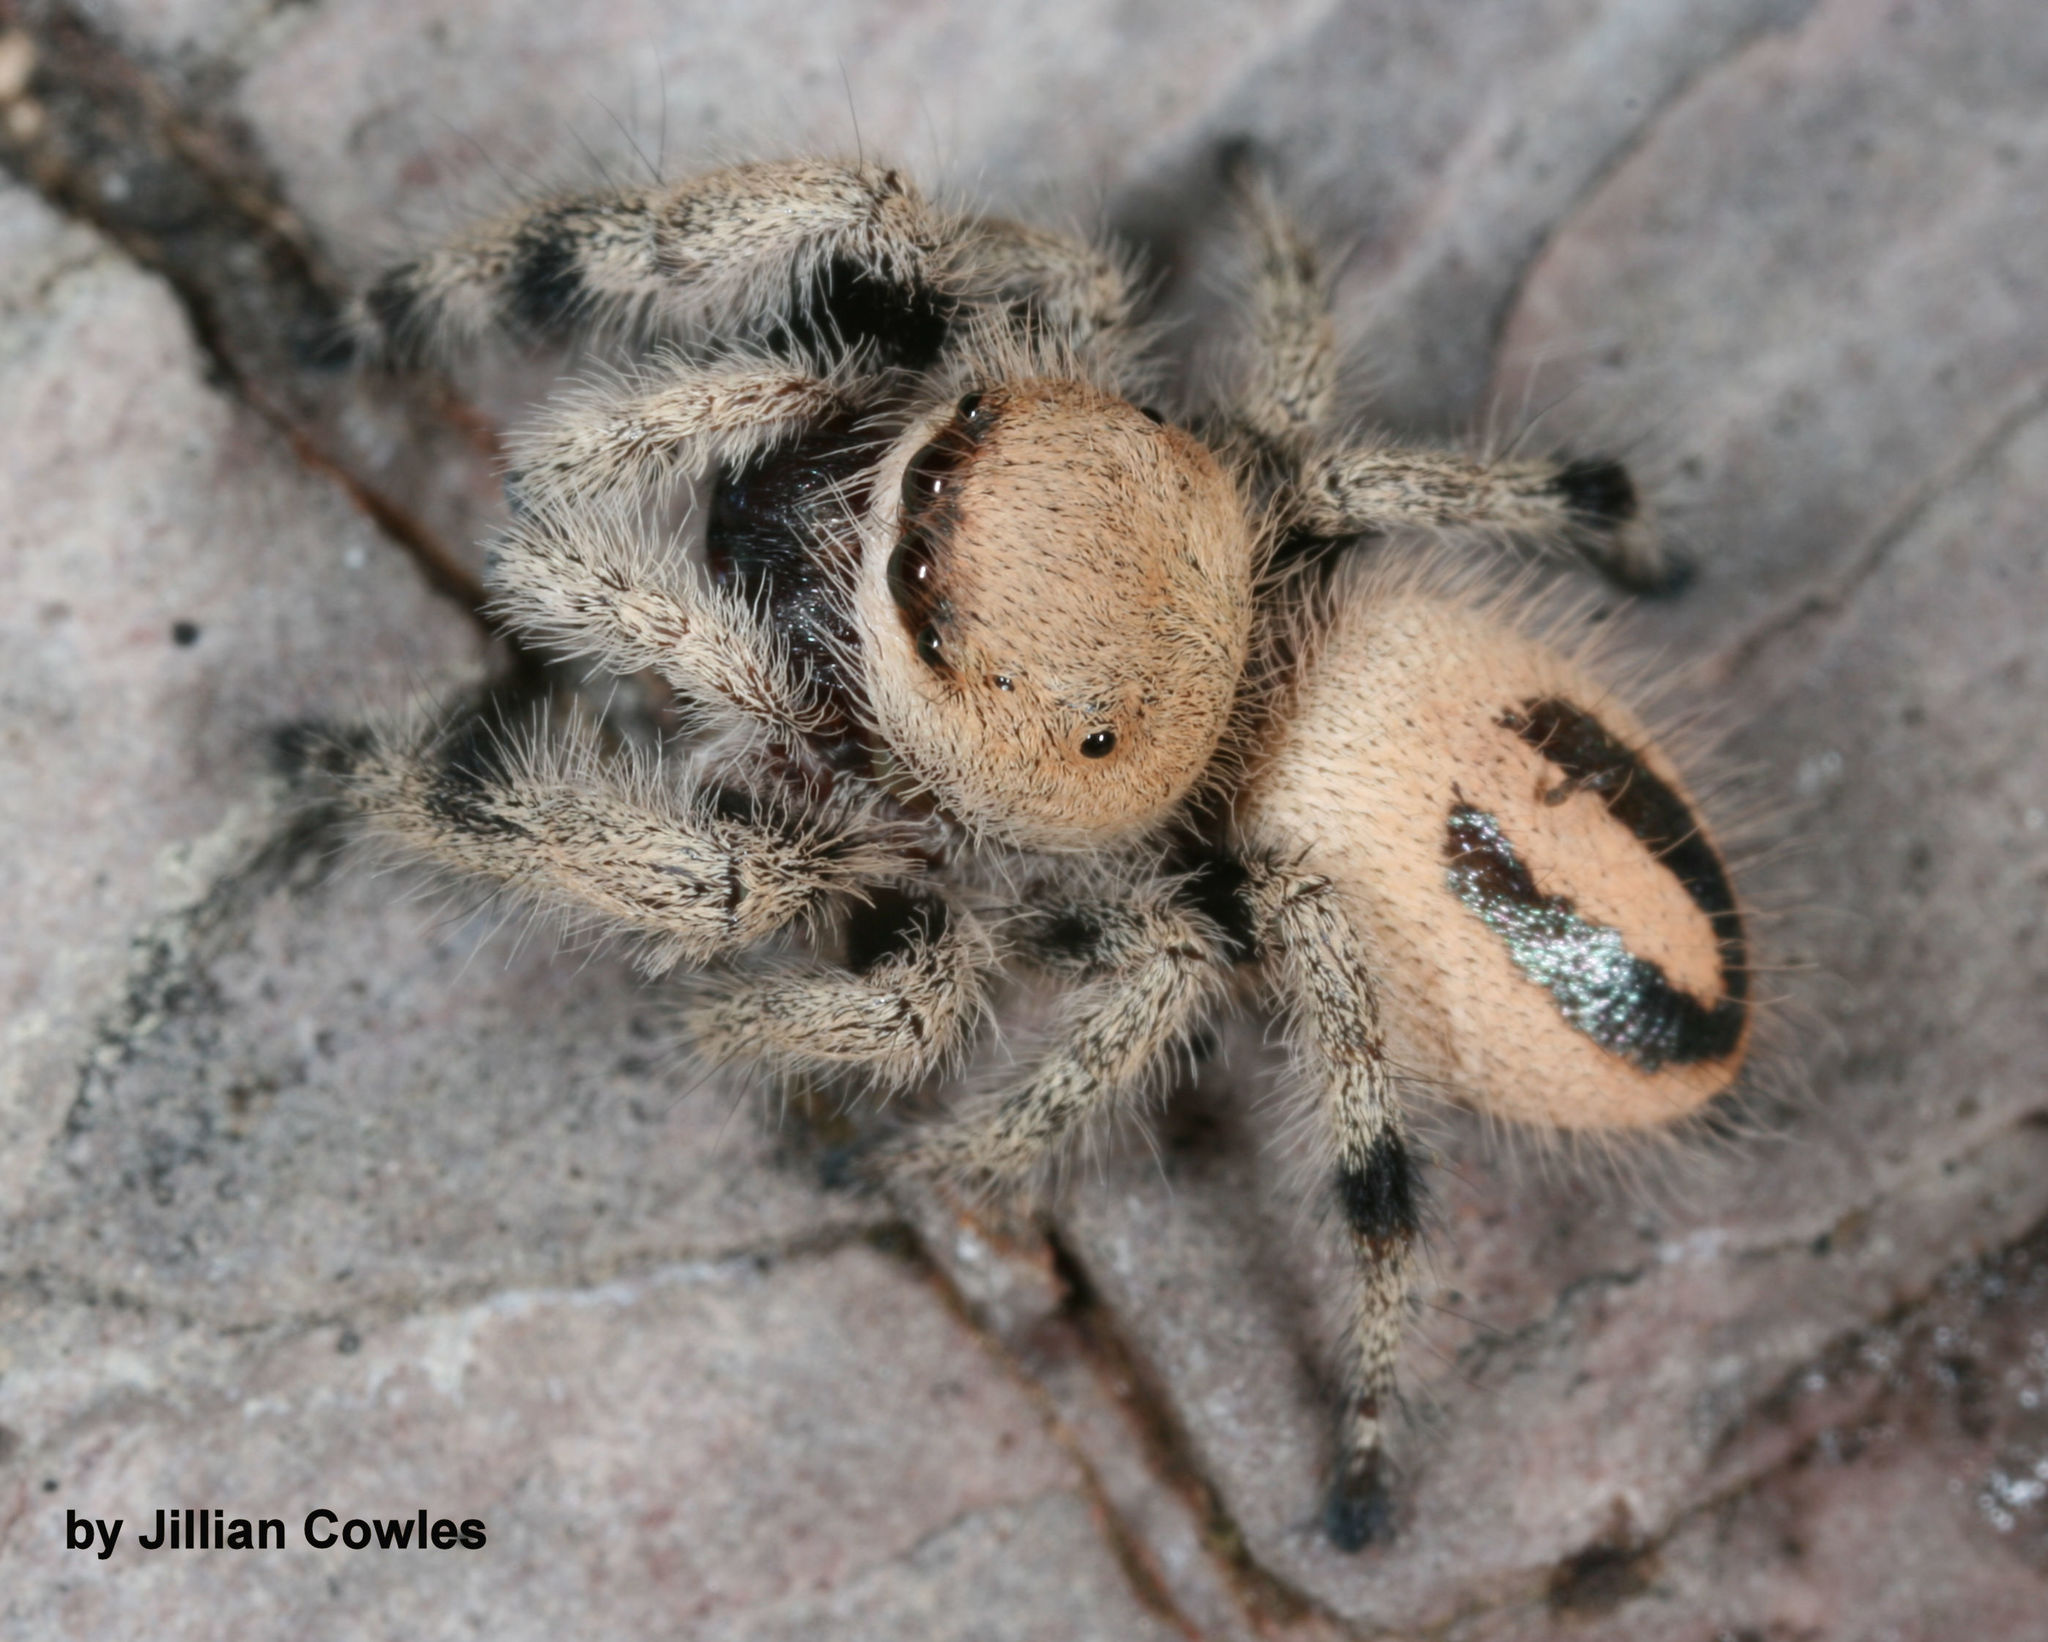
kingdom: Animalia
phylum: Arthropoda
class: Arachnida
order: Araneae
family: Salticidae
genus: Phidippus
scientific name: Phidippus tux
